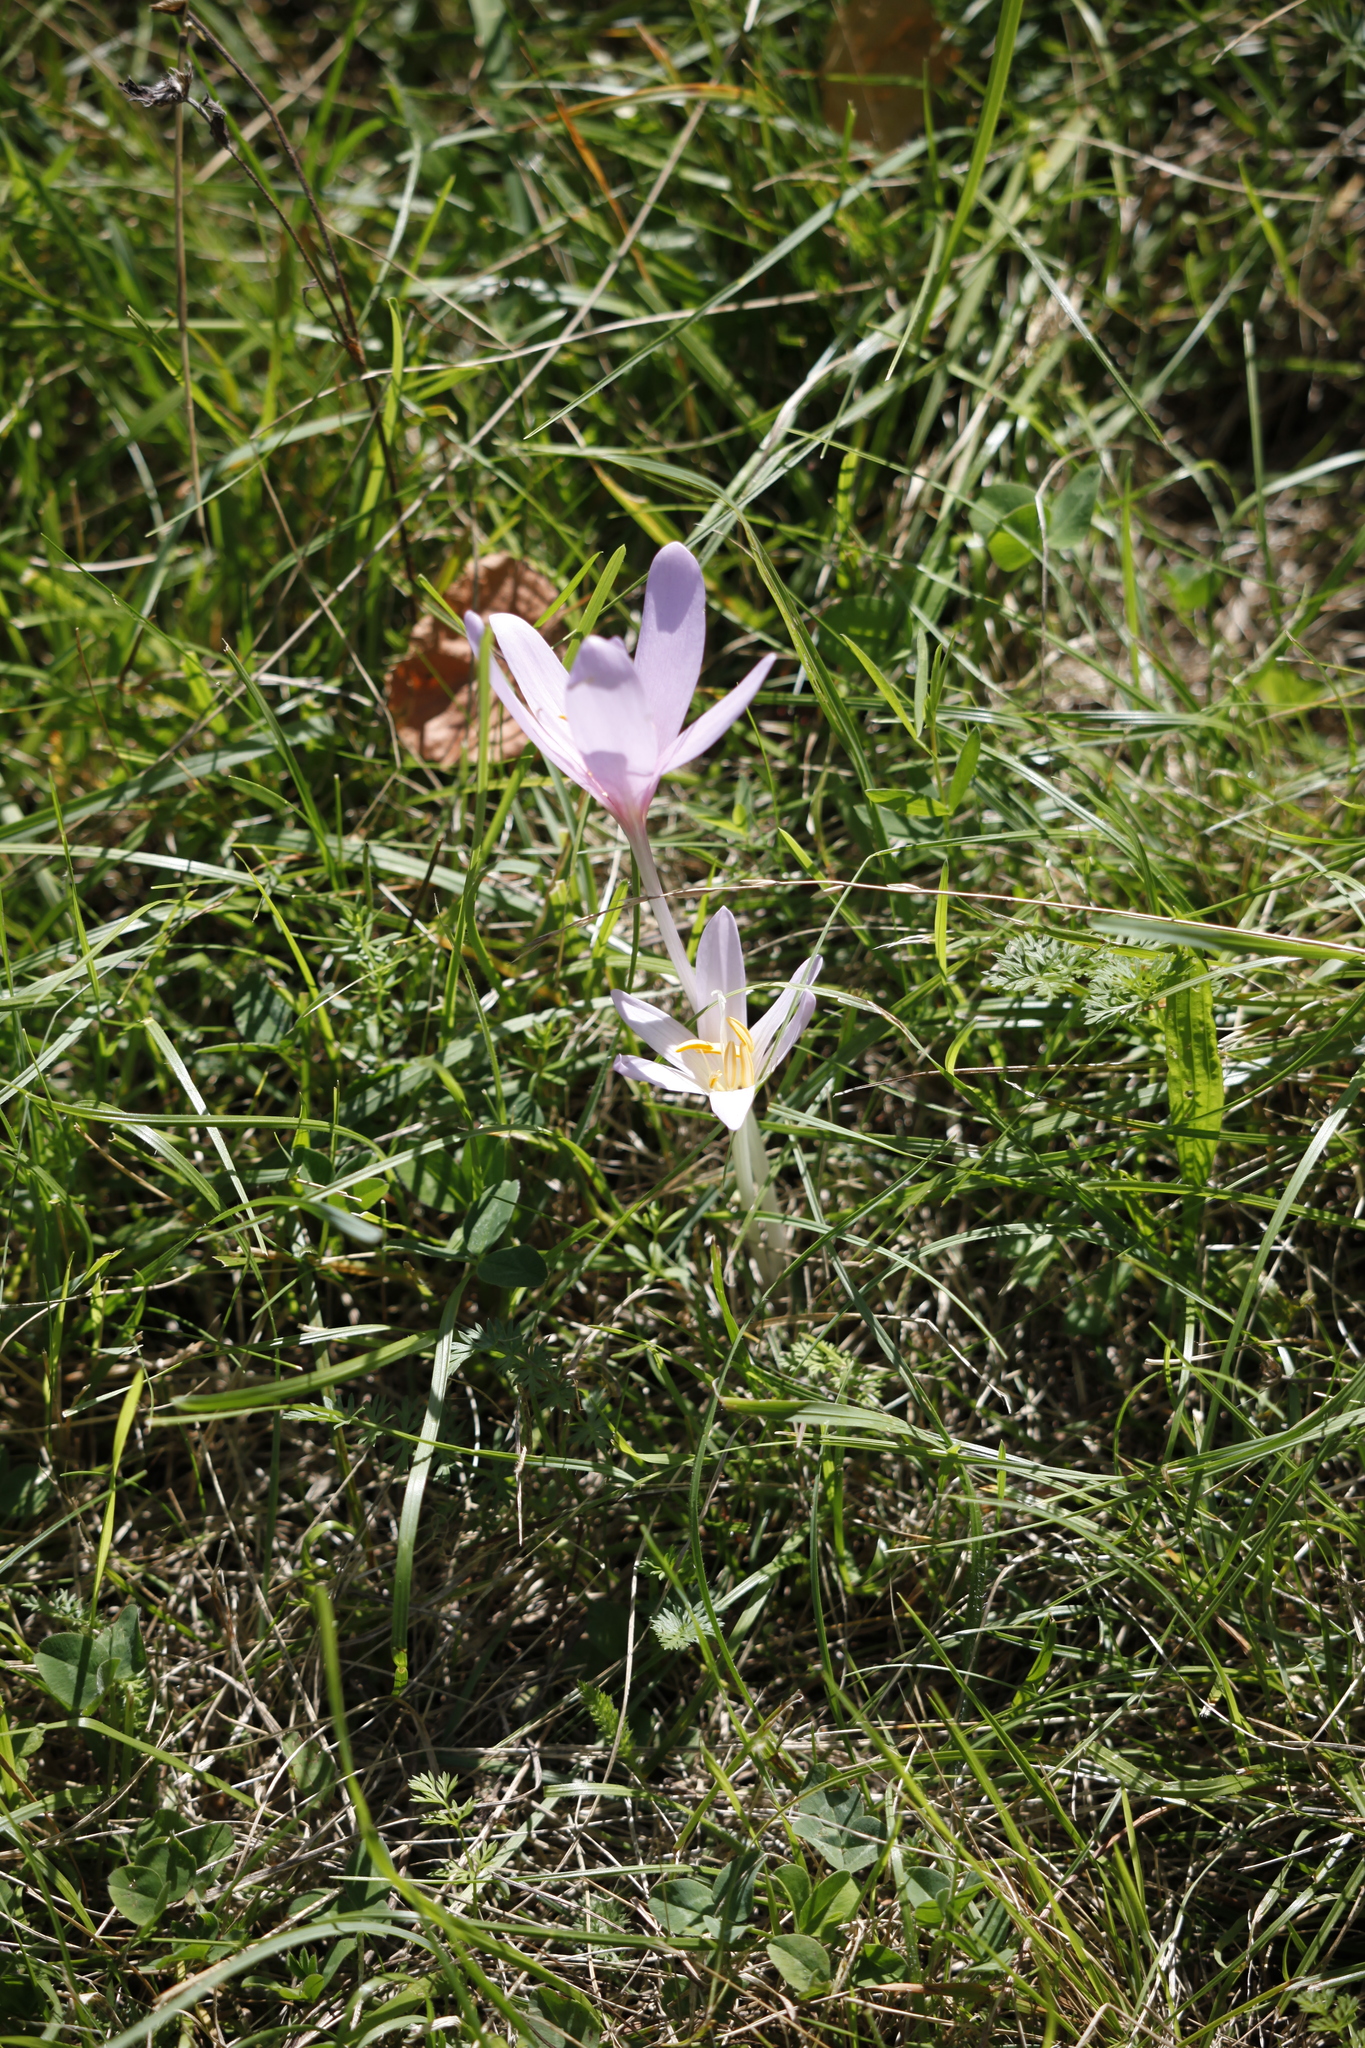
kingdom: Plantae
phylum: Tracheophyta
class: Liliopsida
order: Liliales
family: Colchicaceae
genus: Colchicum
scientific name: Colchicum autumnale
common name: Autumn crocus
